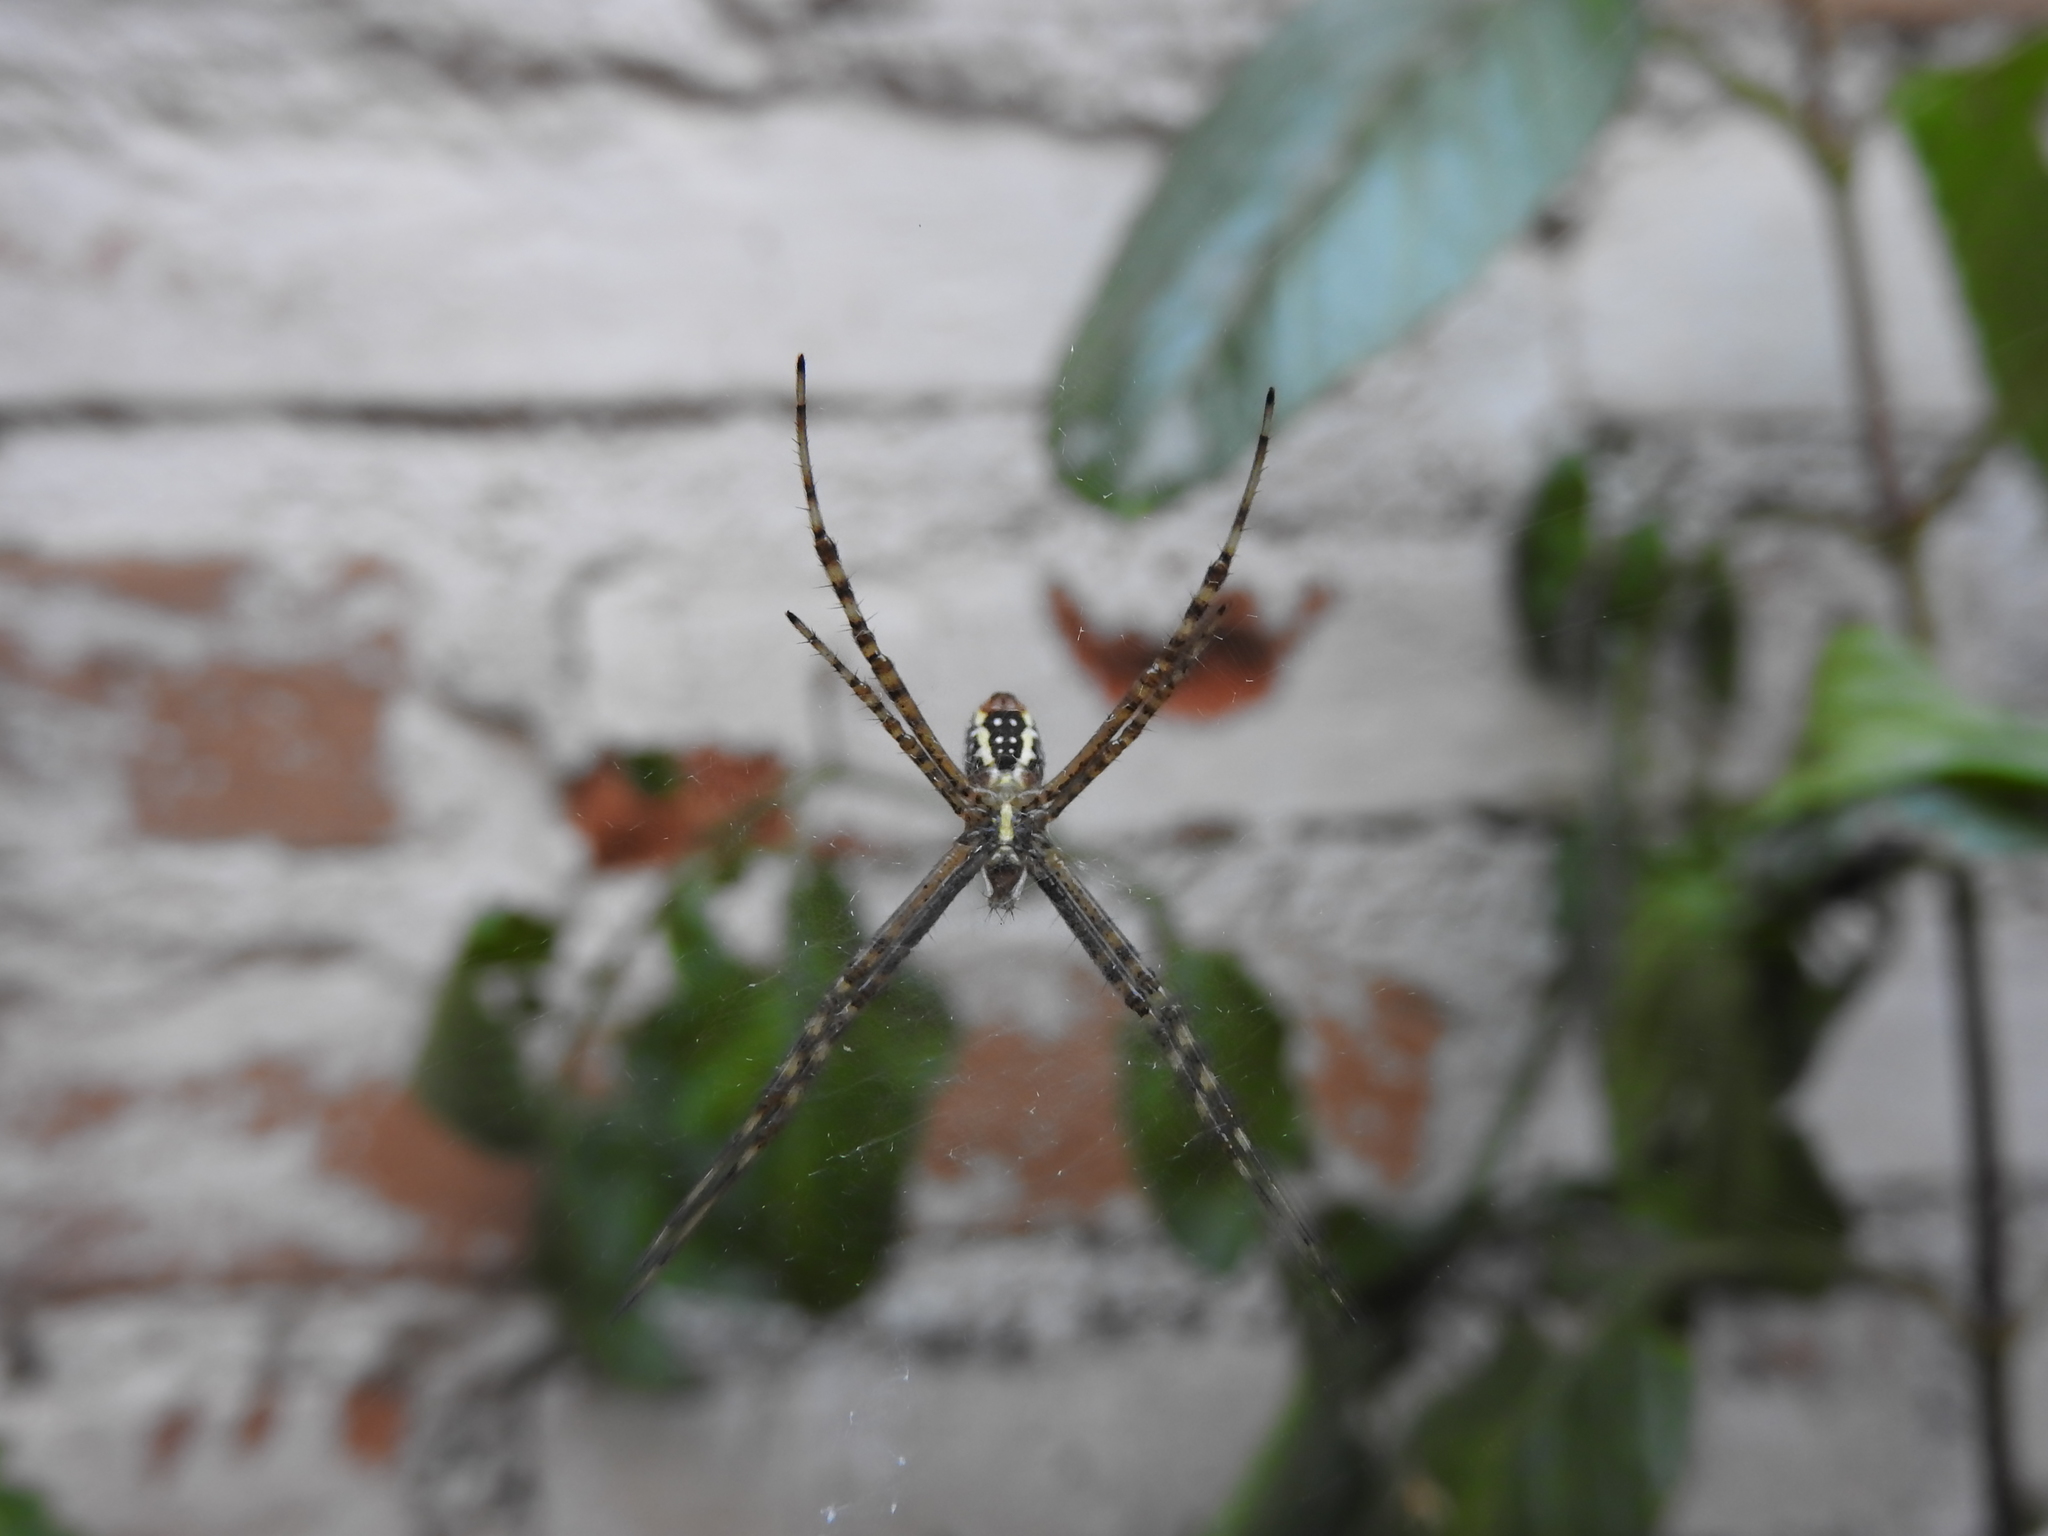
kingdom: Animalia
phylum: Arthropoda
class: Arachnida
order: Araneae
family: Araneidae
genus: Argiope
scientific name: Argiope trifasciata
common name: Banded garden spider
